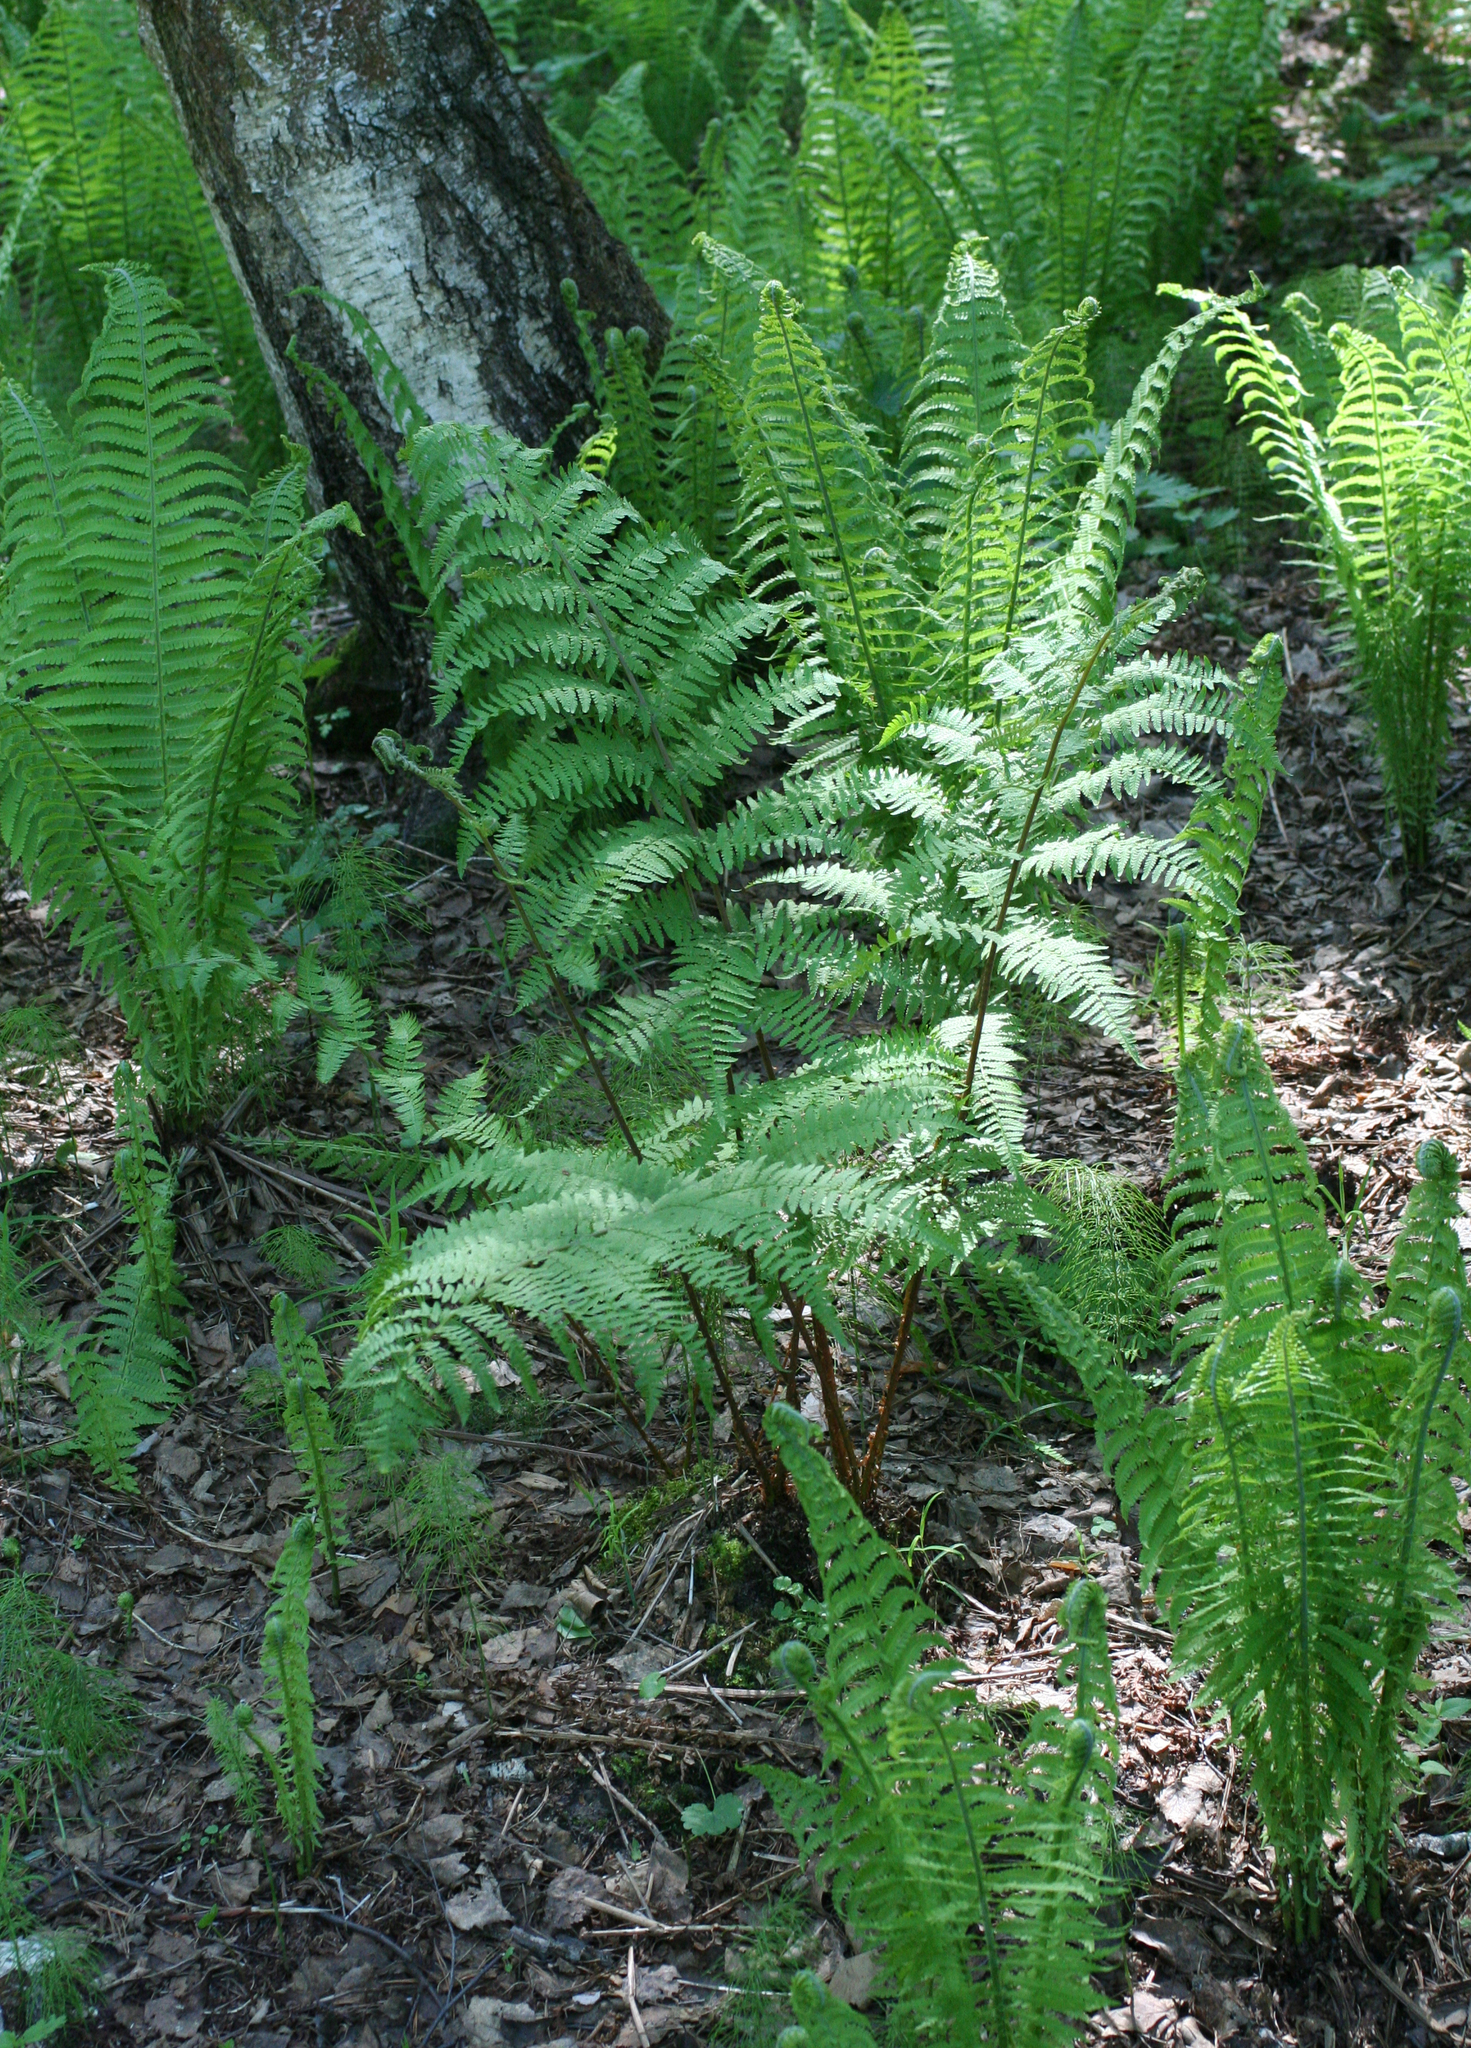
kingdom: Plantae
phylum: Tracheophyta
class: Polypodiopsida
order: Polypodiales
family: Athyriaceae
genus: Athyrium
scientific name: Athyrium filix-femina
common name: Lady fern
